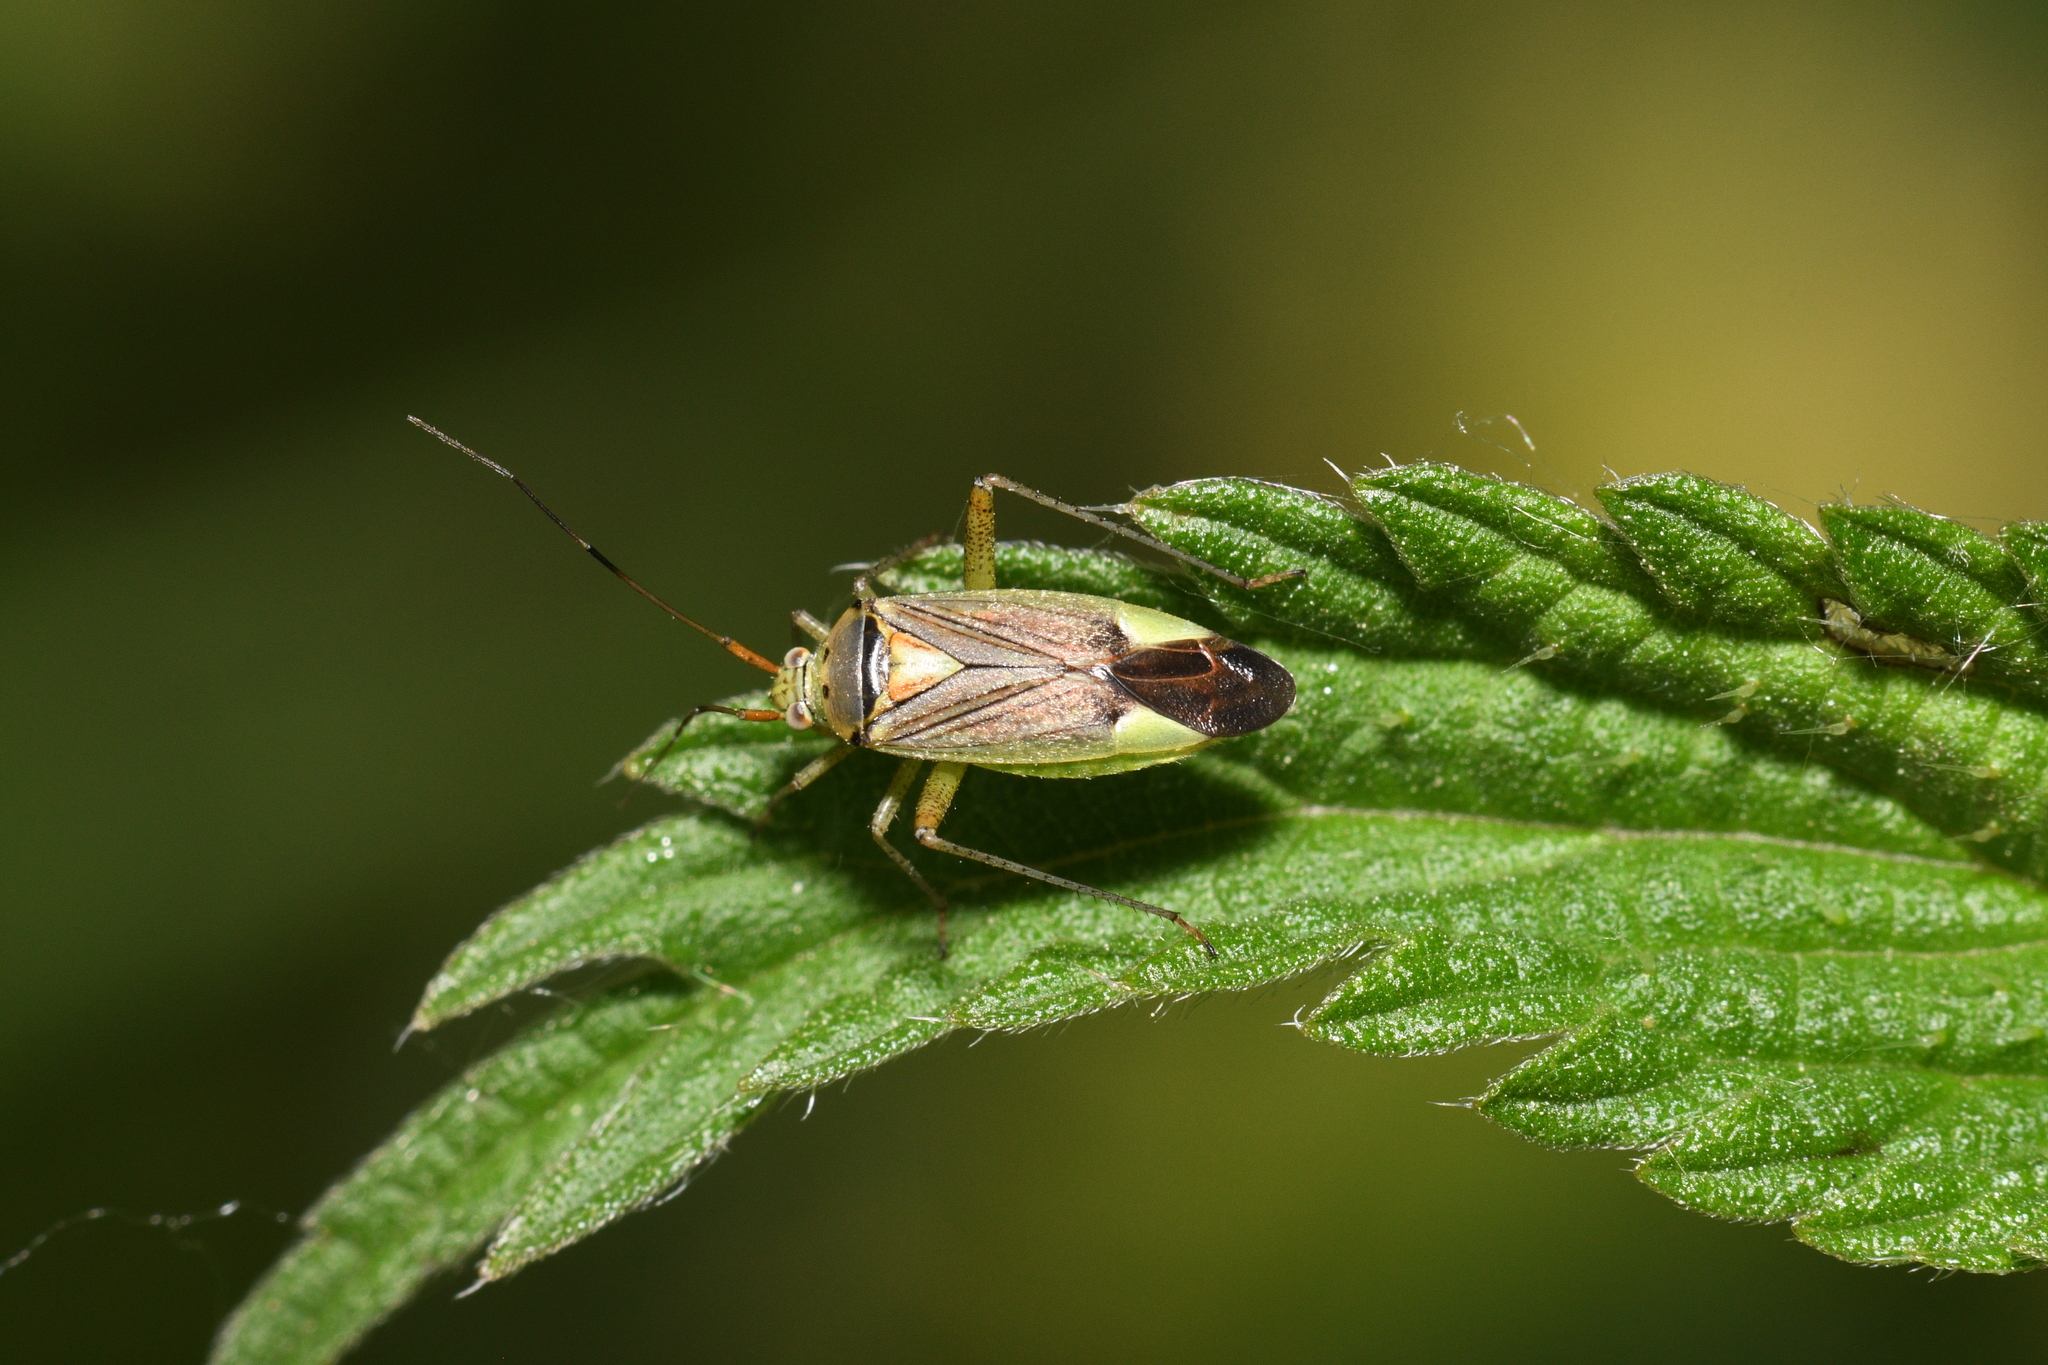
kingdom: Animalia
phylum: Arthropoda
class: Insecta
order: Hemiptera
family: Miridae
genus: Closterotomus
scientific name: Closterotomus trivialis
